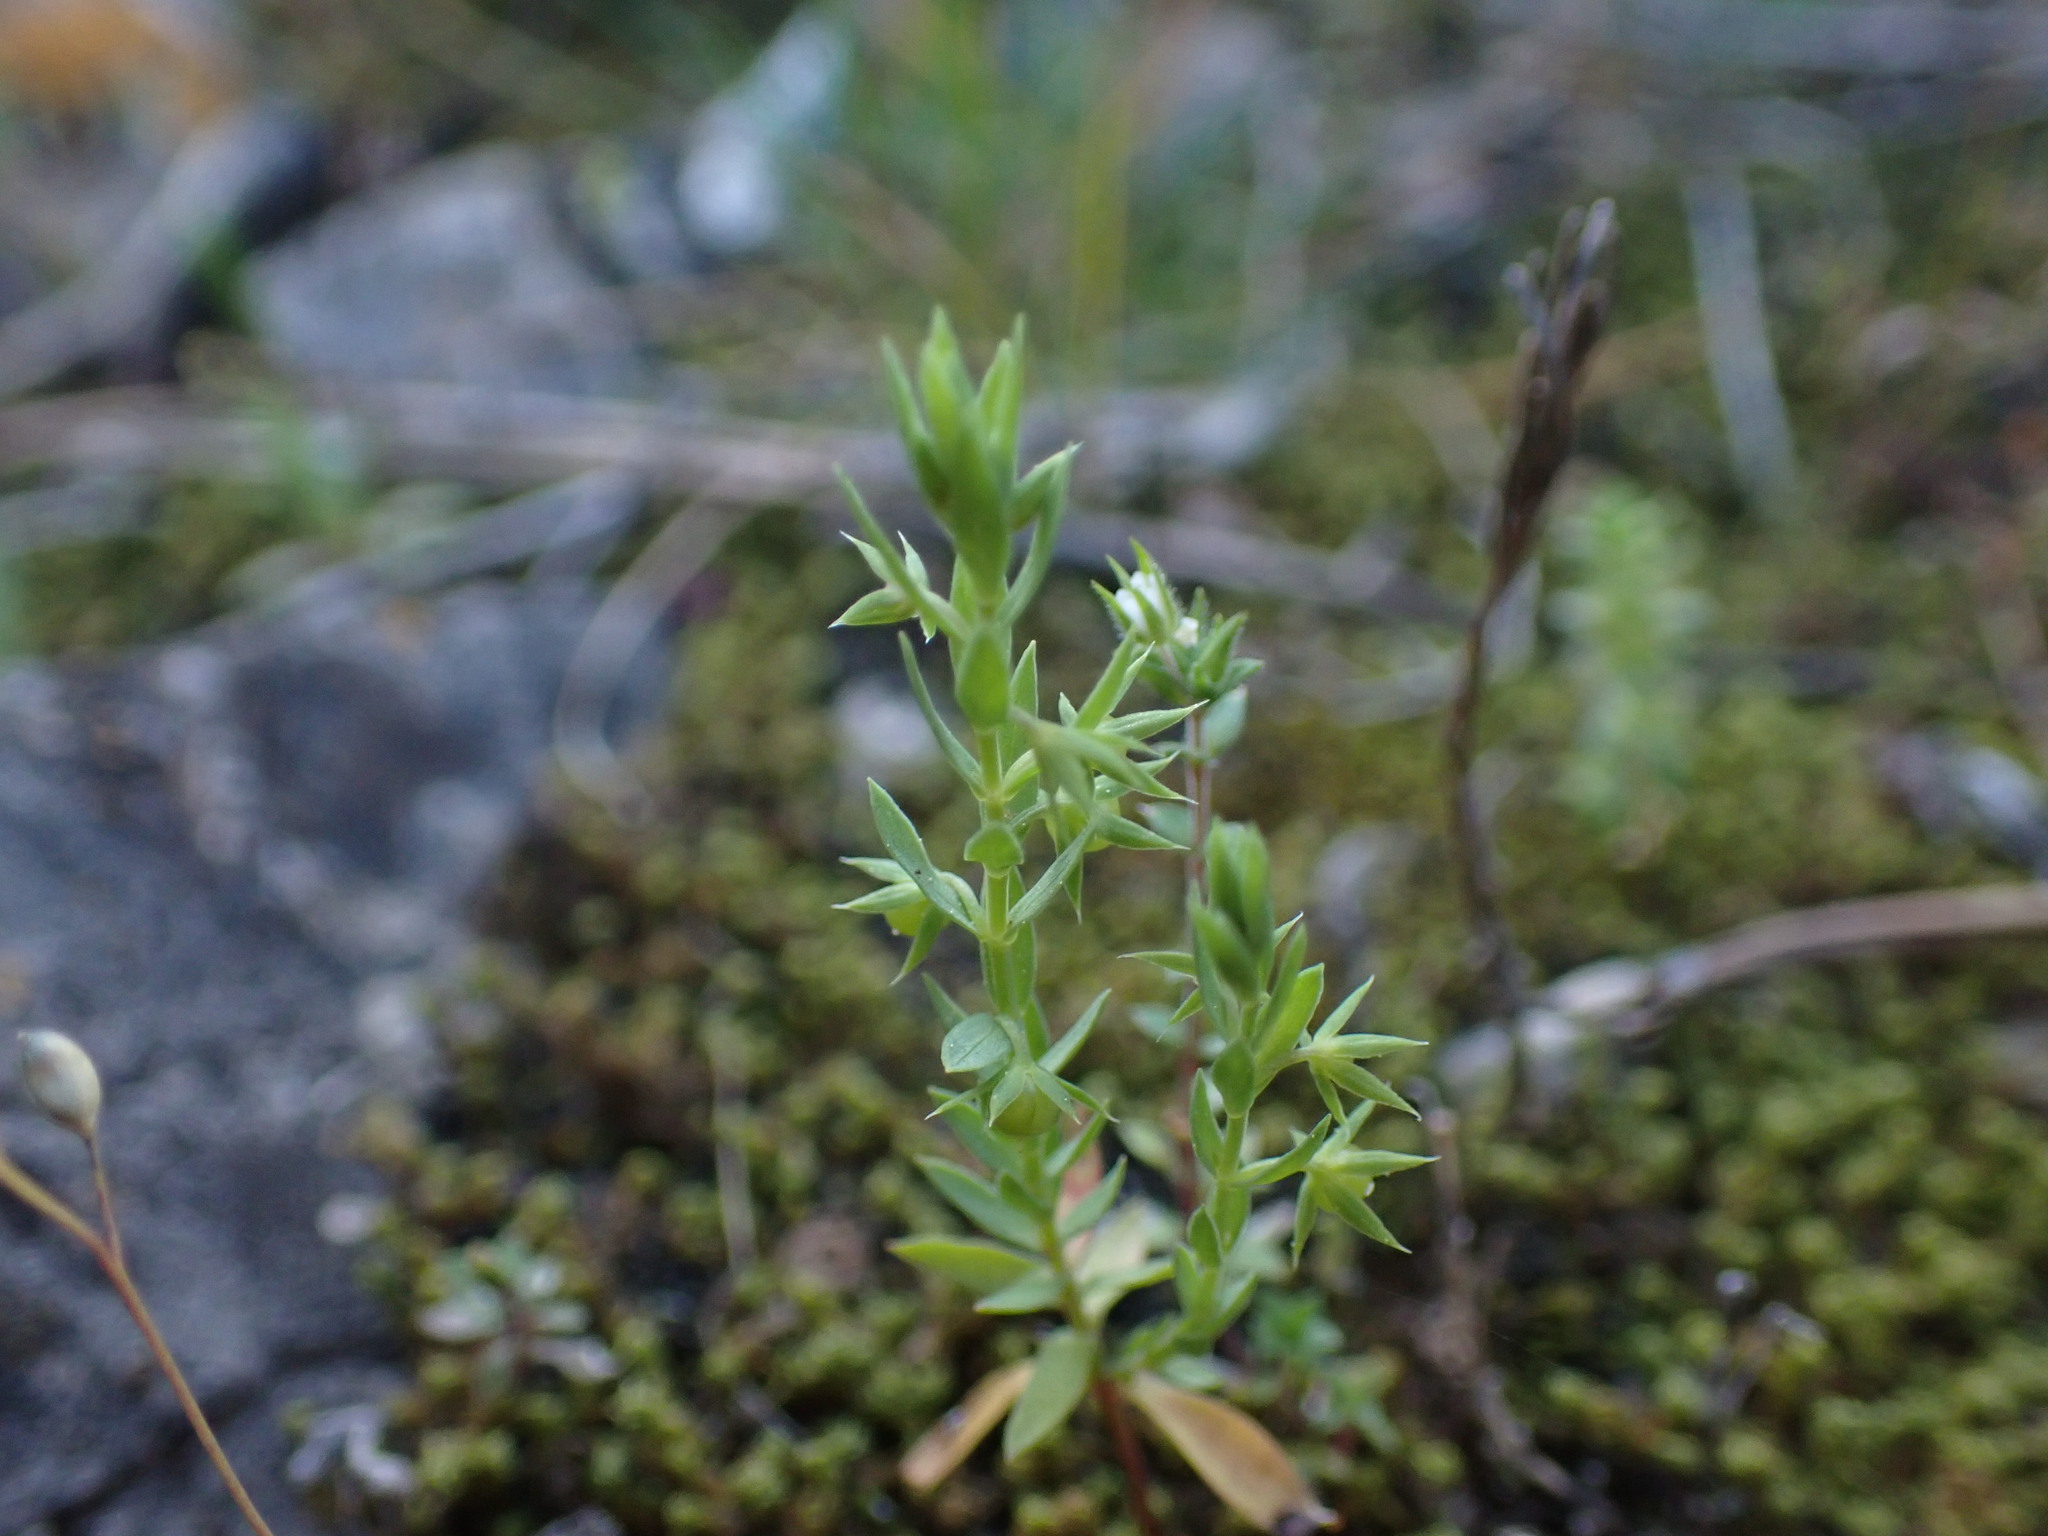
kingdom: Plantae
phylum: Tracheophyta
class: Magnoliopsida
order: Ericales
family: Primulaceae
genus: Lysimachia
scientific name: Lysimachia linum-stellatum
